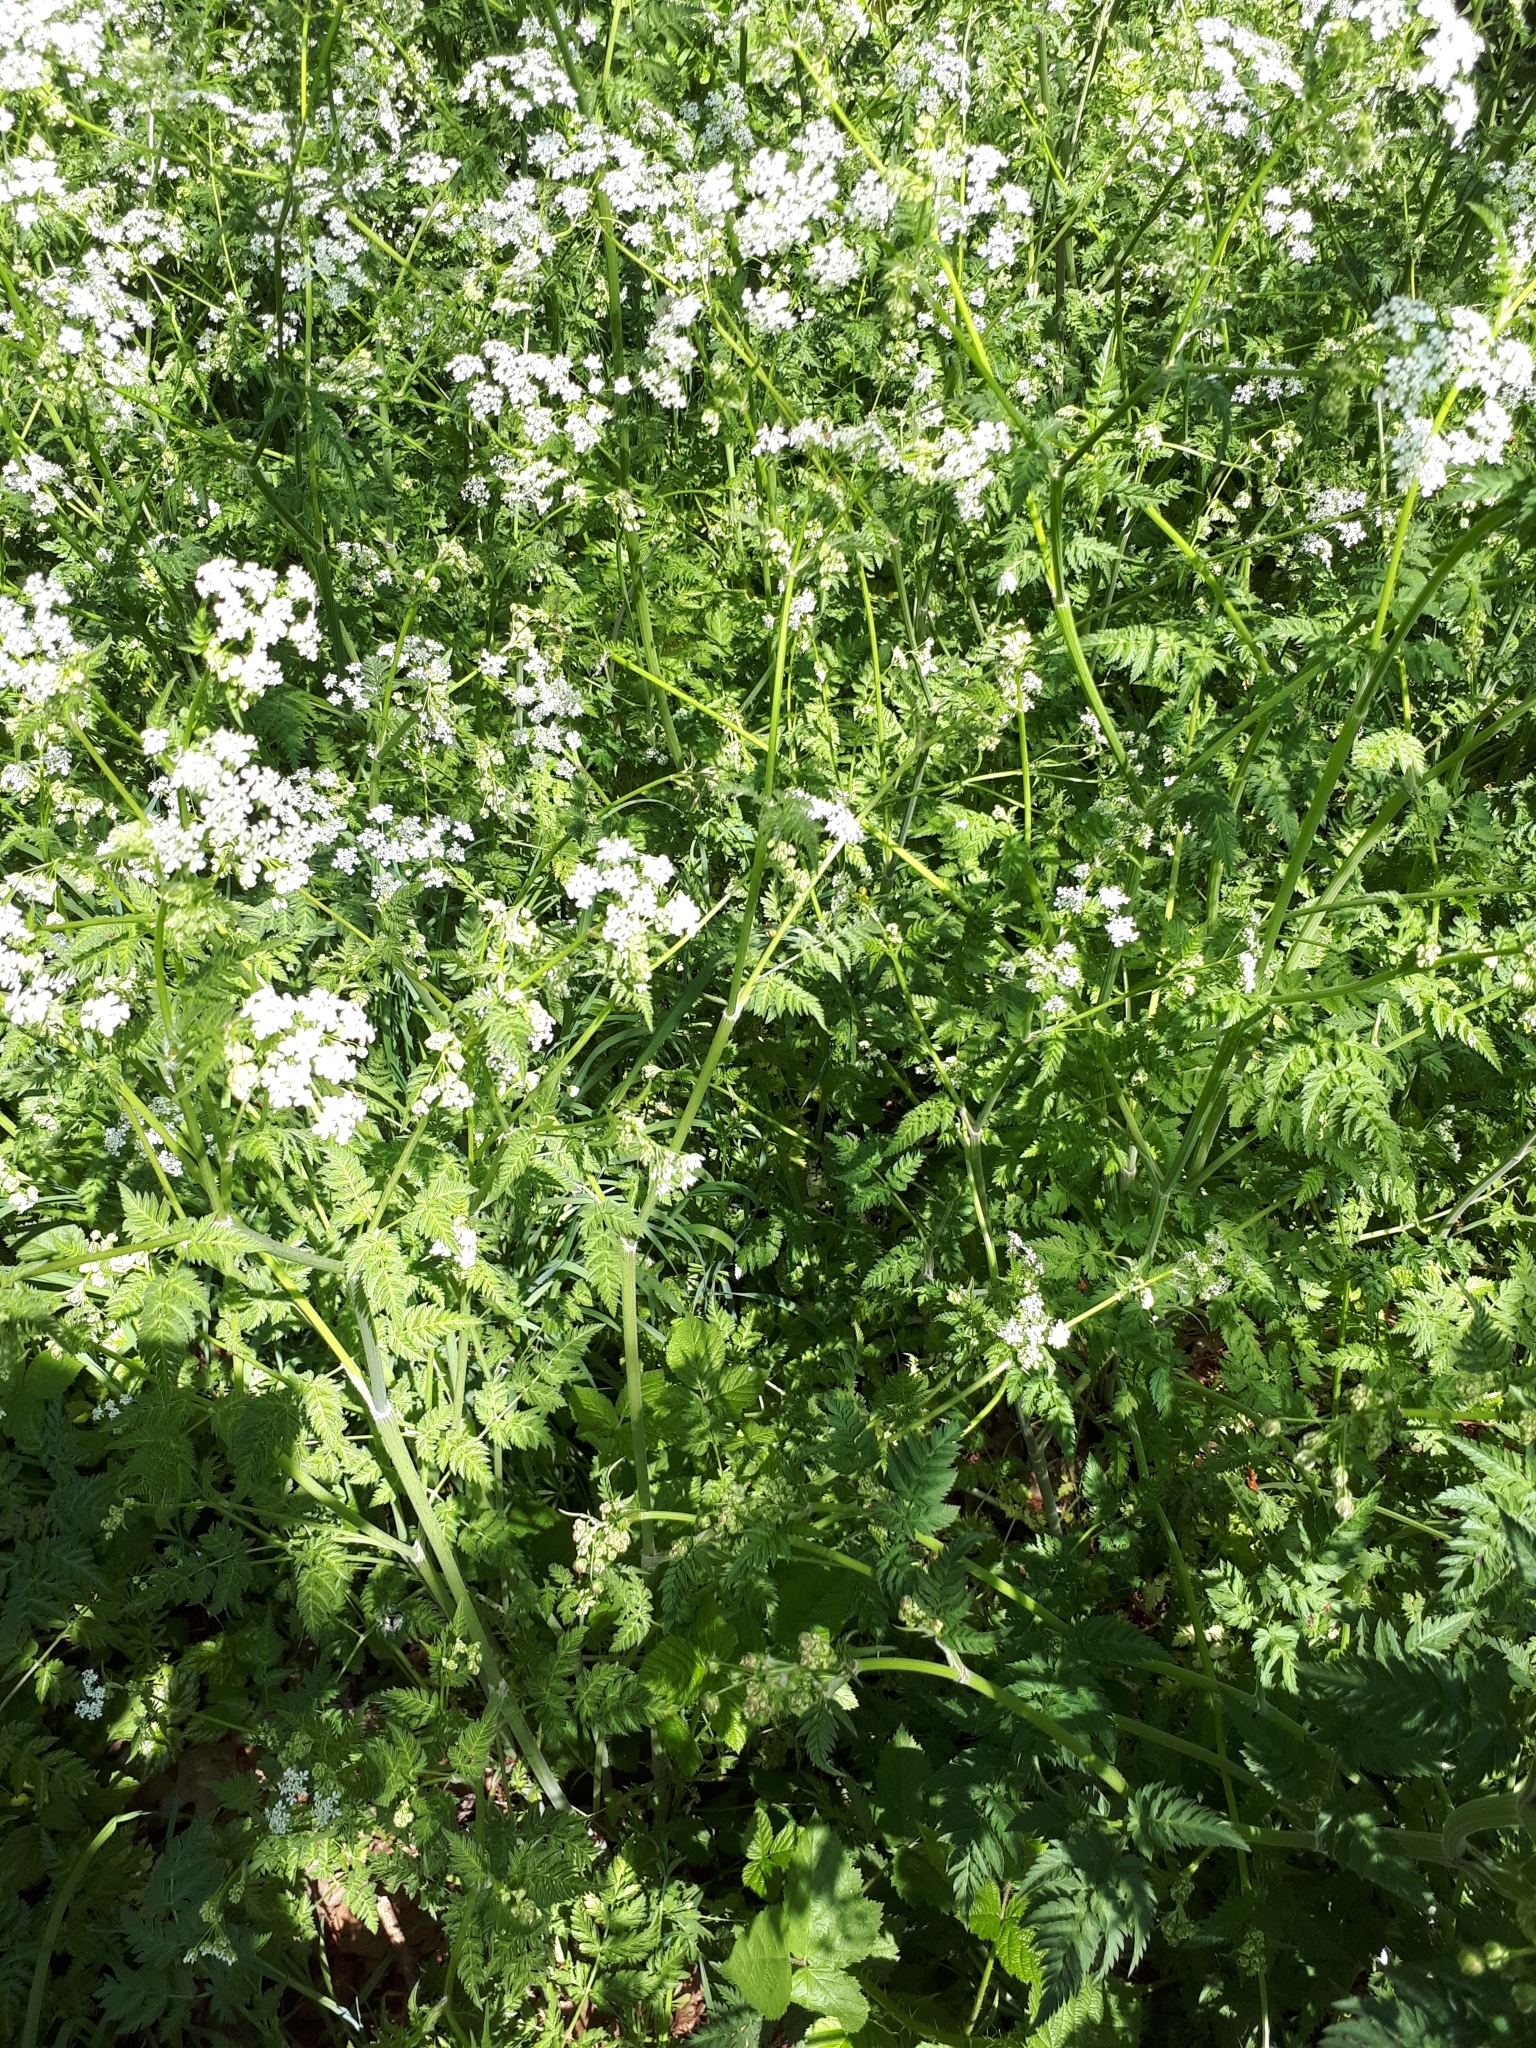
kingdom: Plantae
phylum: Tracheophyta
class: Magnoliopsida
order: Apiales
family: Apiaceae
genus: Anthriscus
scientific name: Anthriscus sylvestris
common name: Cow parsley
